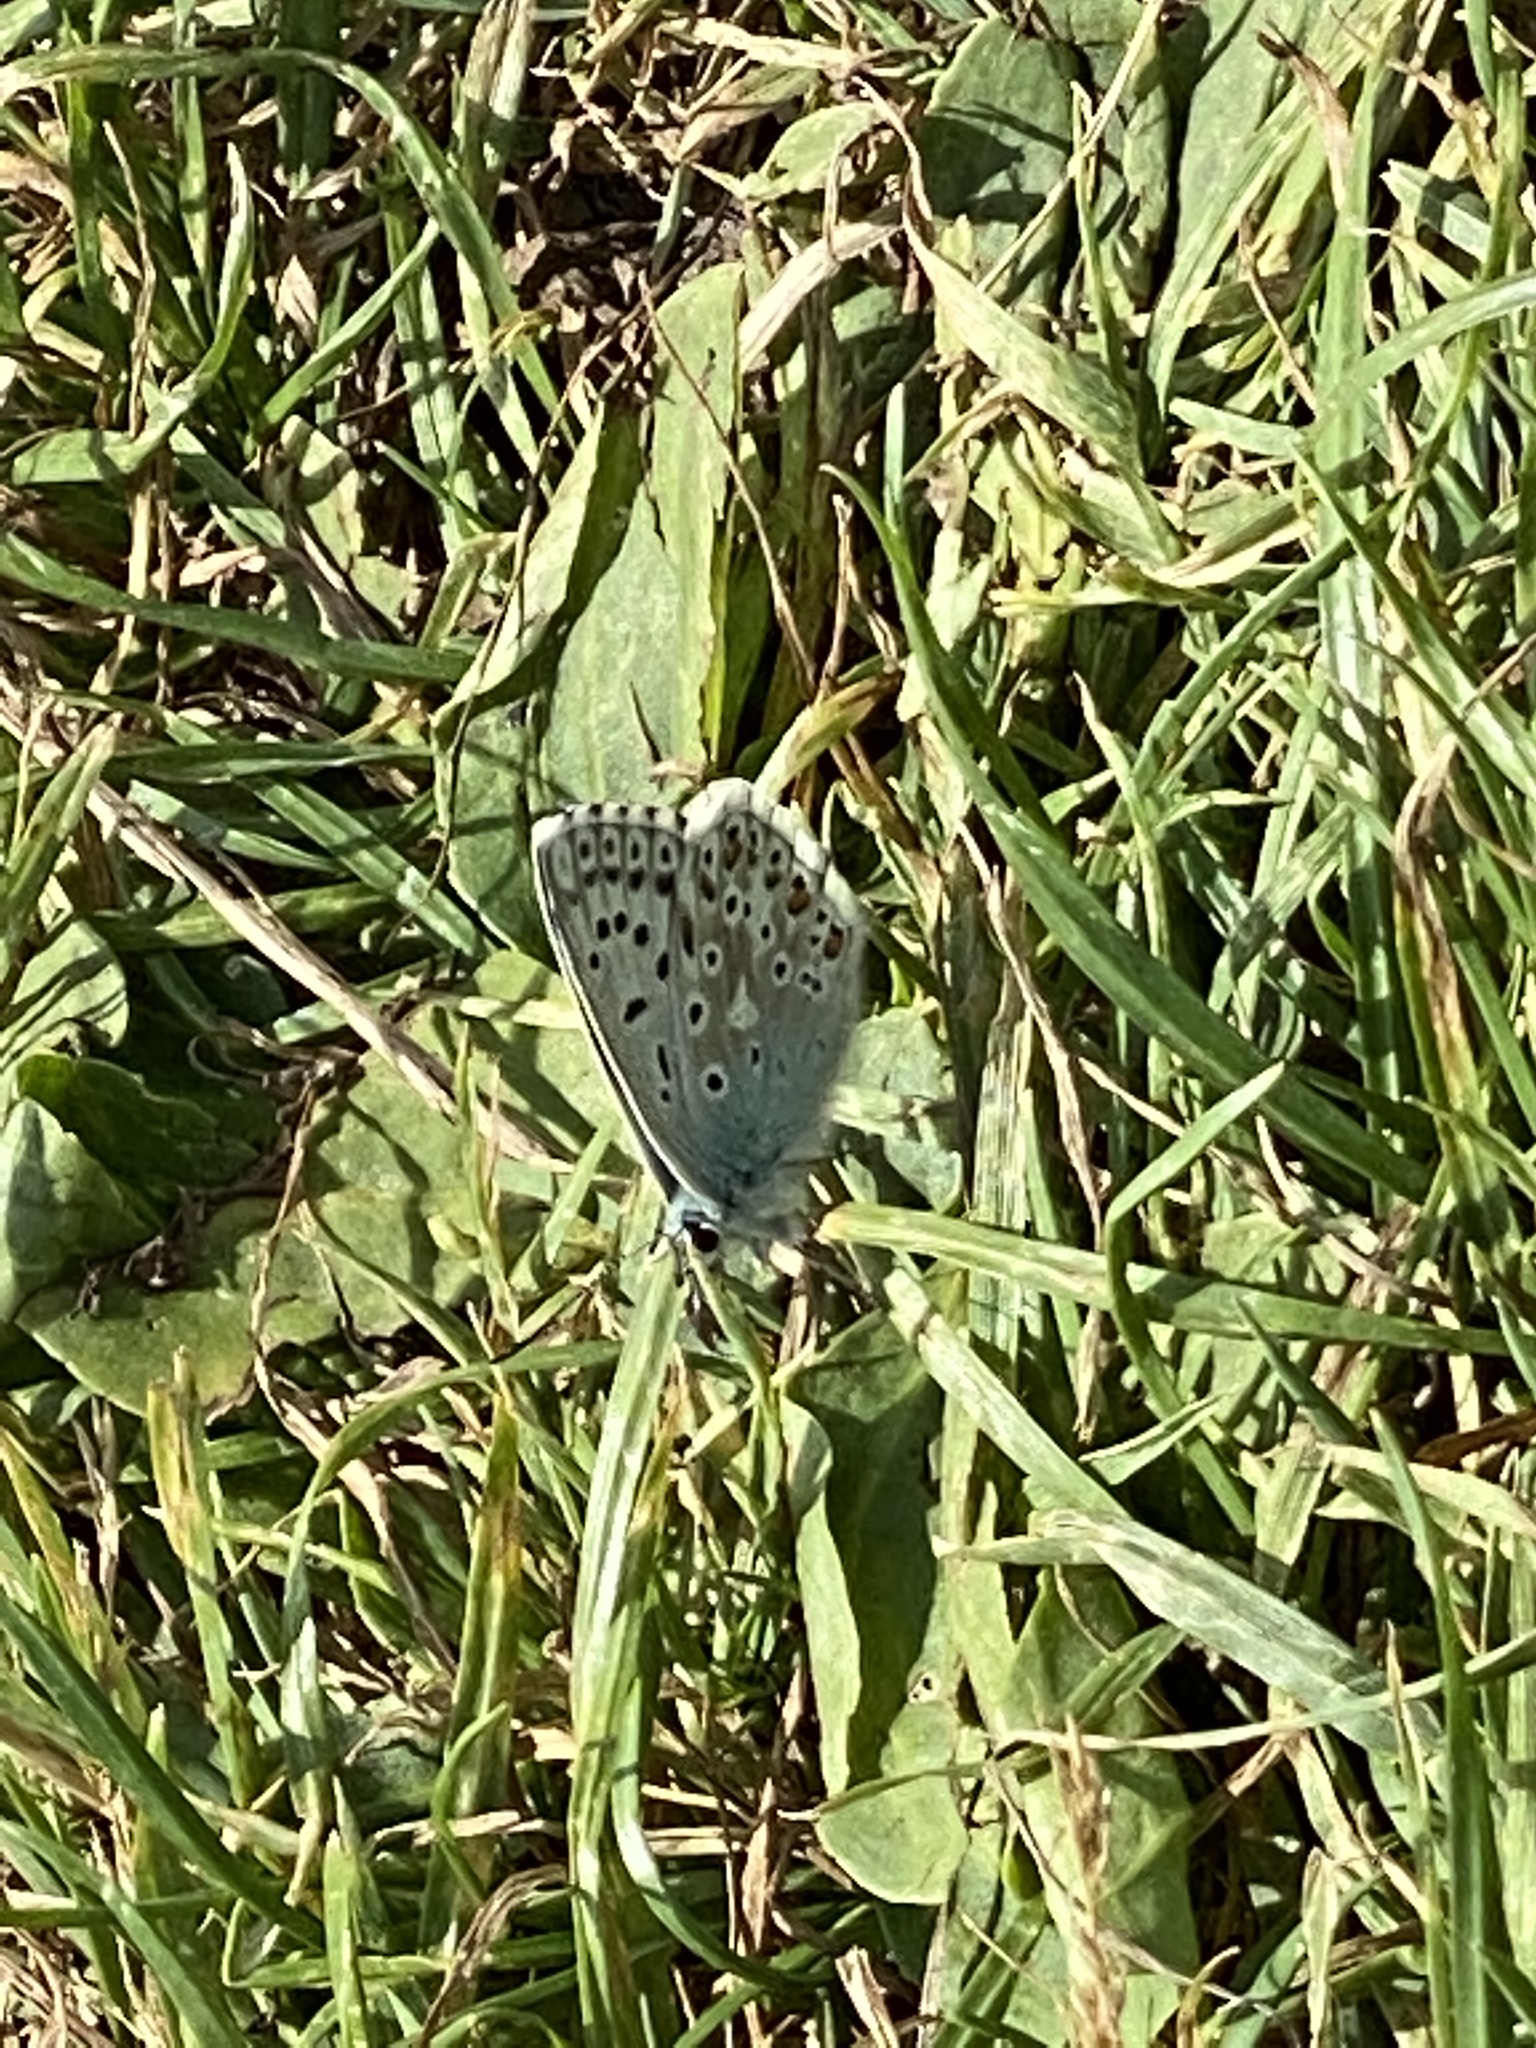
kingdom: Animalia
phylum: Arthropoda
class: Insecta
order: Lepidoptera
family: Lycaenidae
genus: Lysandra
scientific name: Lysandra coridon
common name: Chalkhill blue
